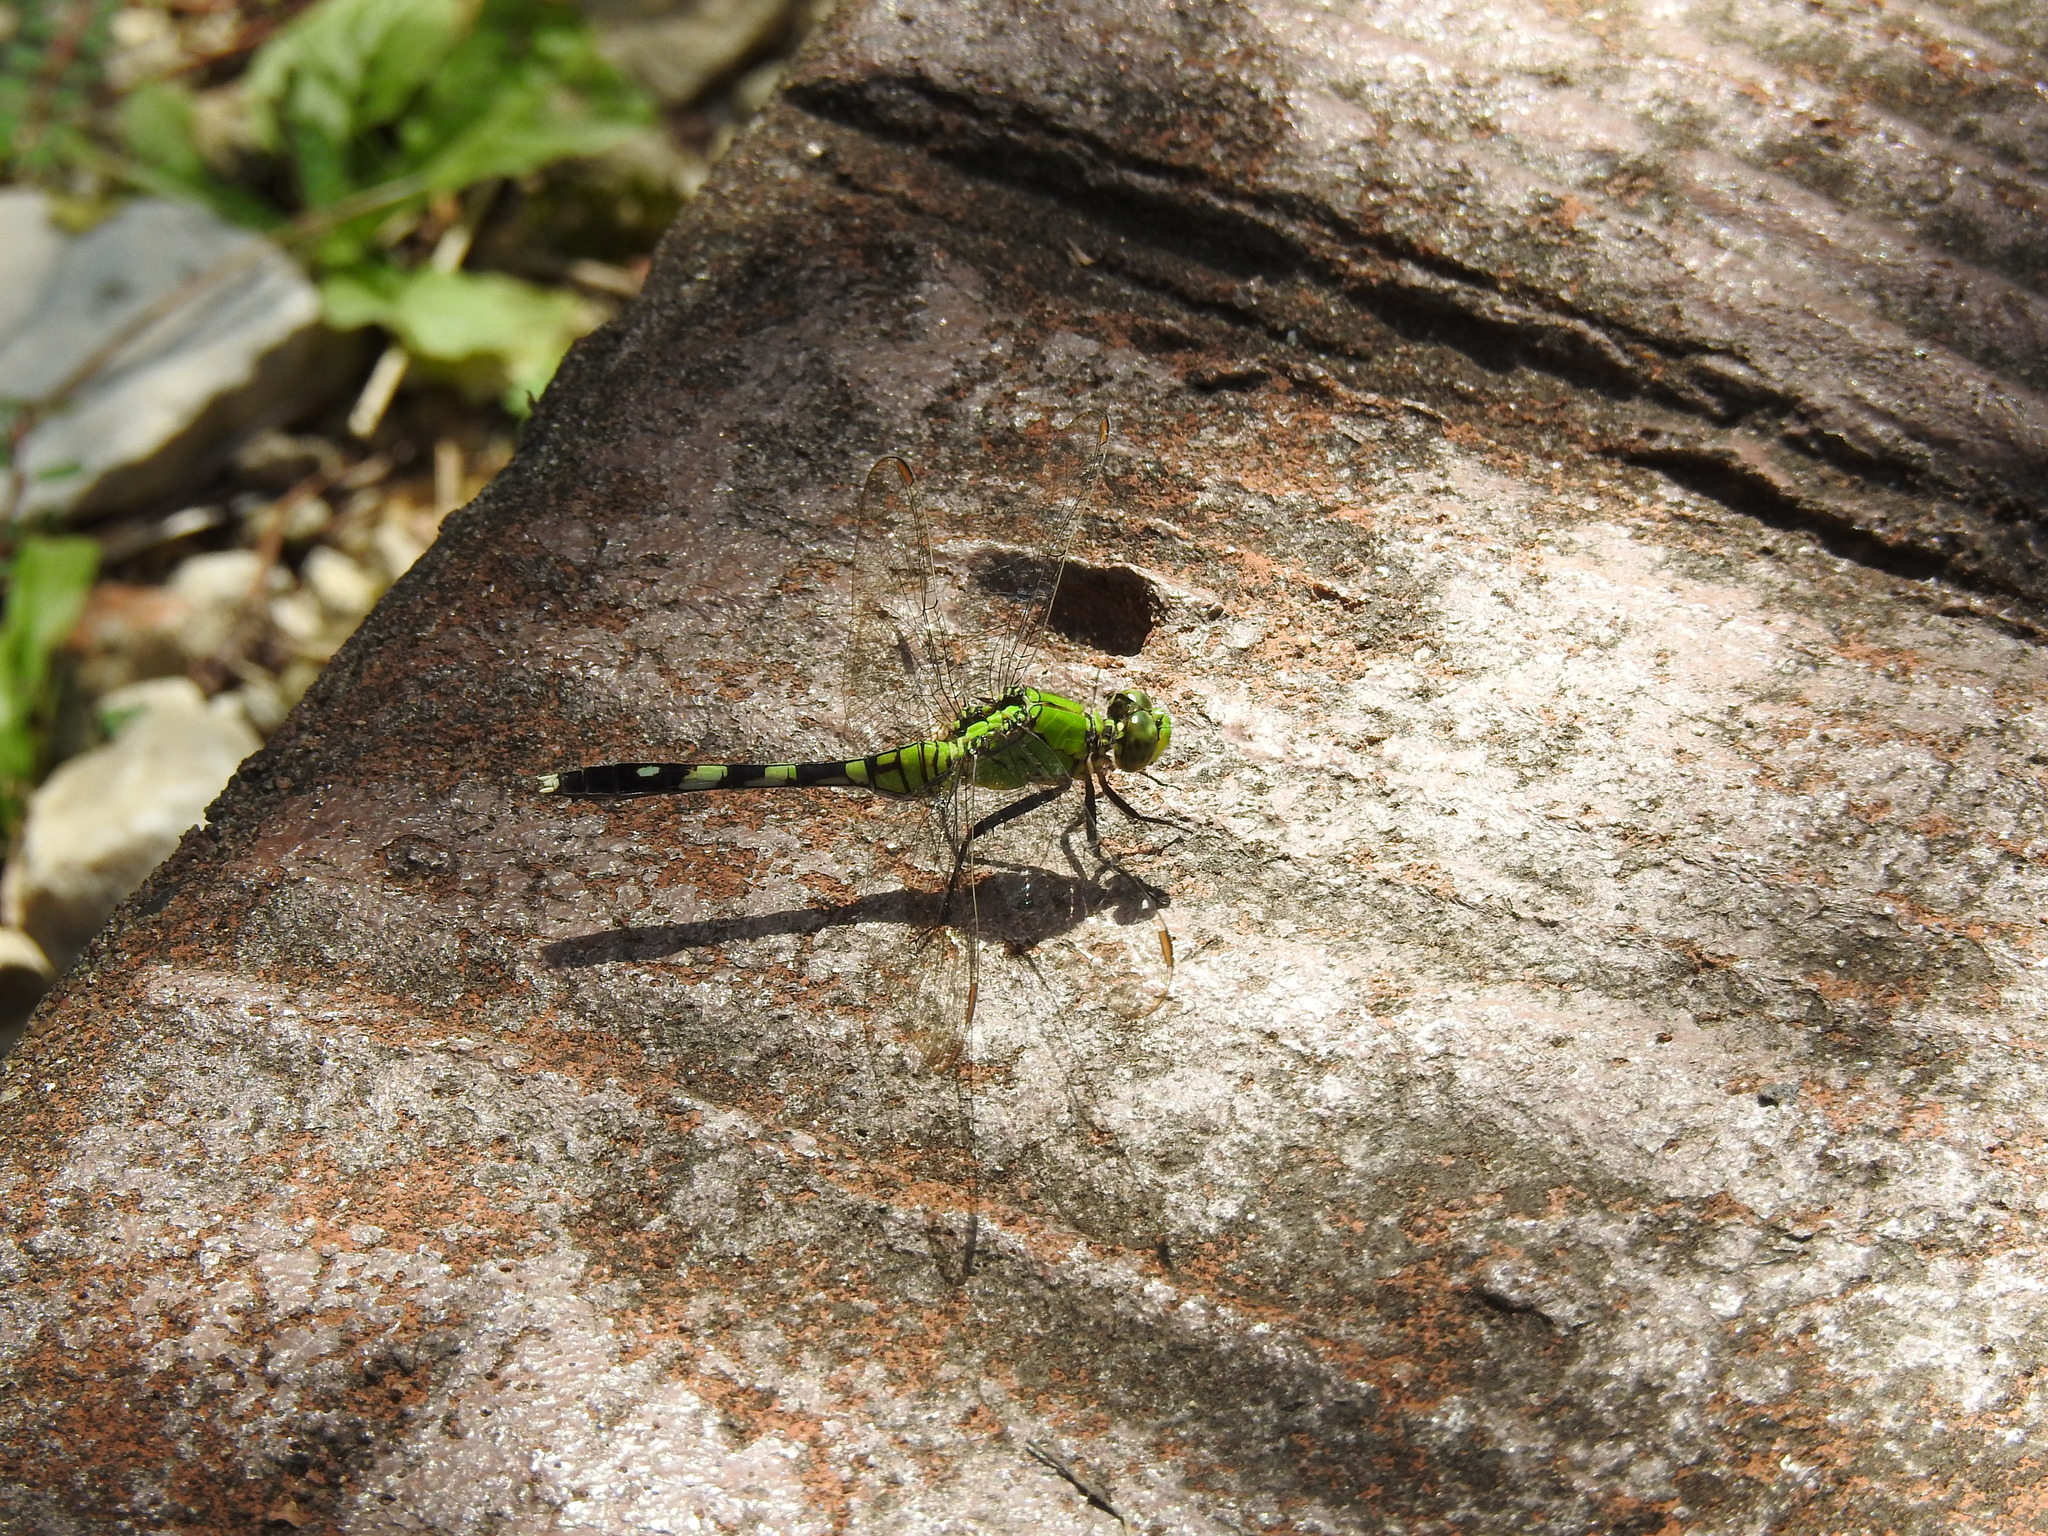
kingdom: Animalia
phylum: Arthropoda
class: Insecta
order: Odonata
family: Libellulidae
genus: Erythemis
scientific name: Erythemis simplicicollis
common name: Eastern pondhawk
